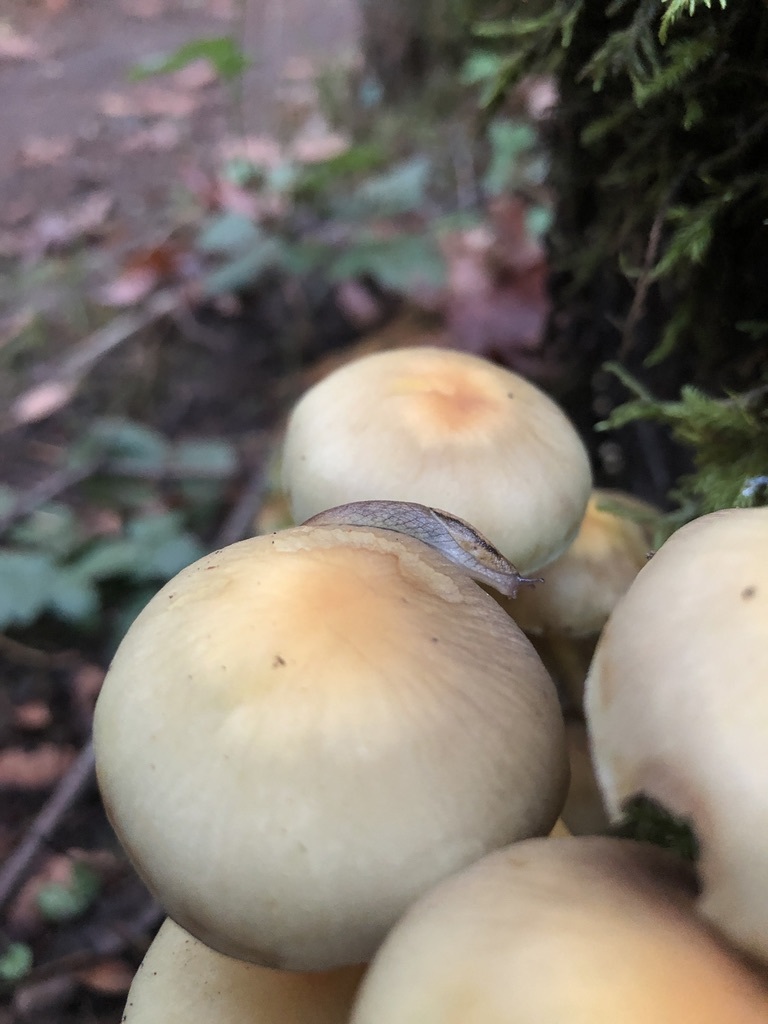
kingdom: Animalia
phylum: Mollusca
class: Gastropoda
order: Stylommatophora
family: Ariolimacidae
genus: Prophysaon
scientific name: Prophysaon andersonii
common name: Reticulate taildropper
